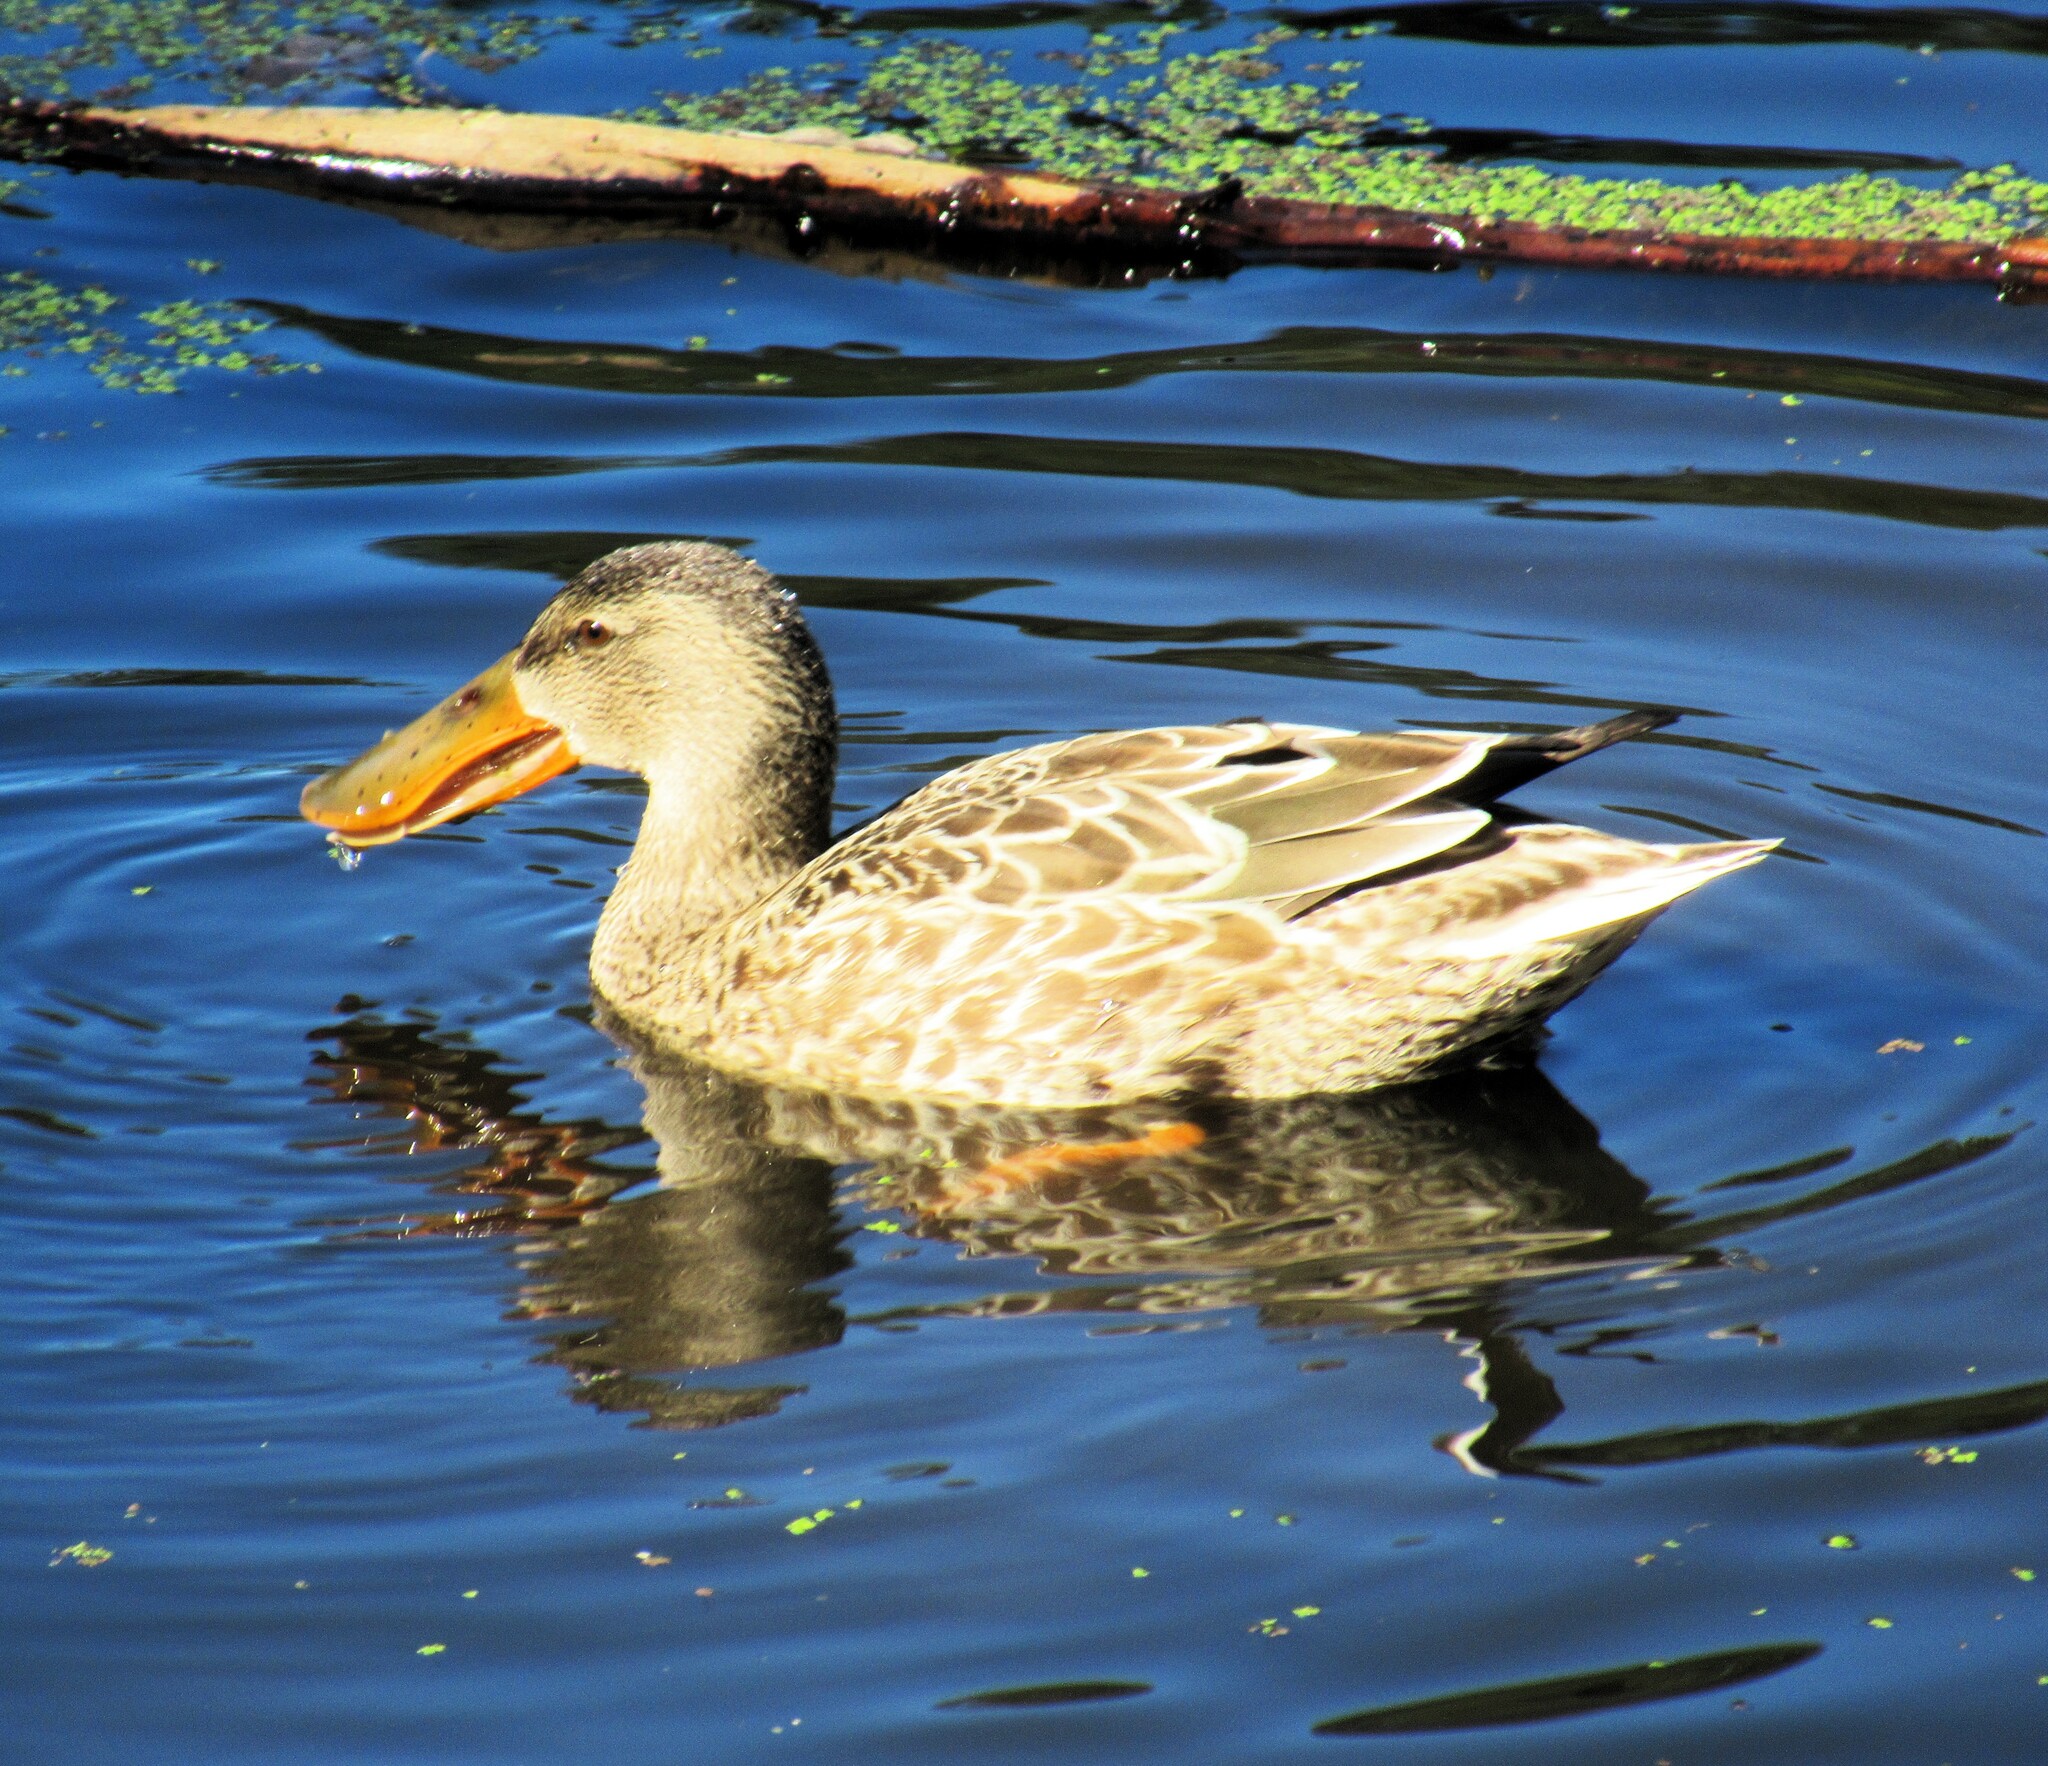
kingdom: Animalia
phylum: Chordata
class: Aves
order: Anseriformes
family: Anatidae
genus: Spatula
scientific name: Spatula clypeata
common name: Northern shoveler
